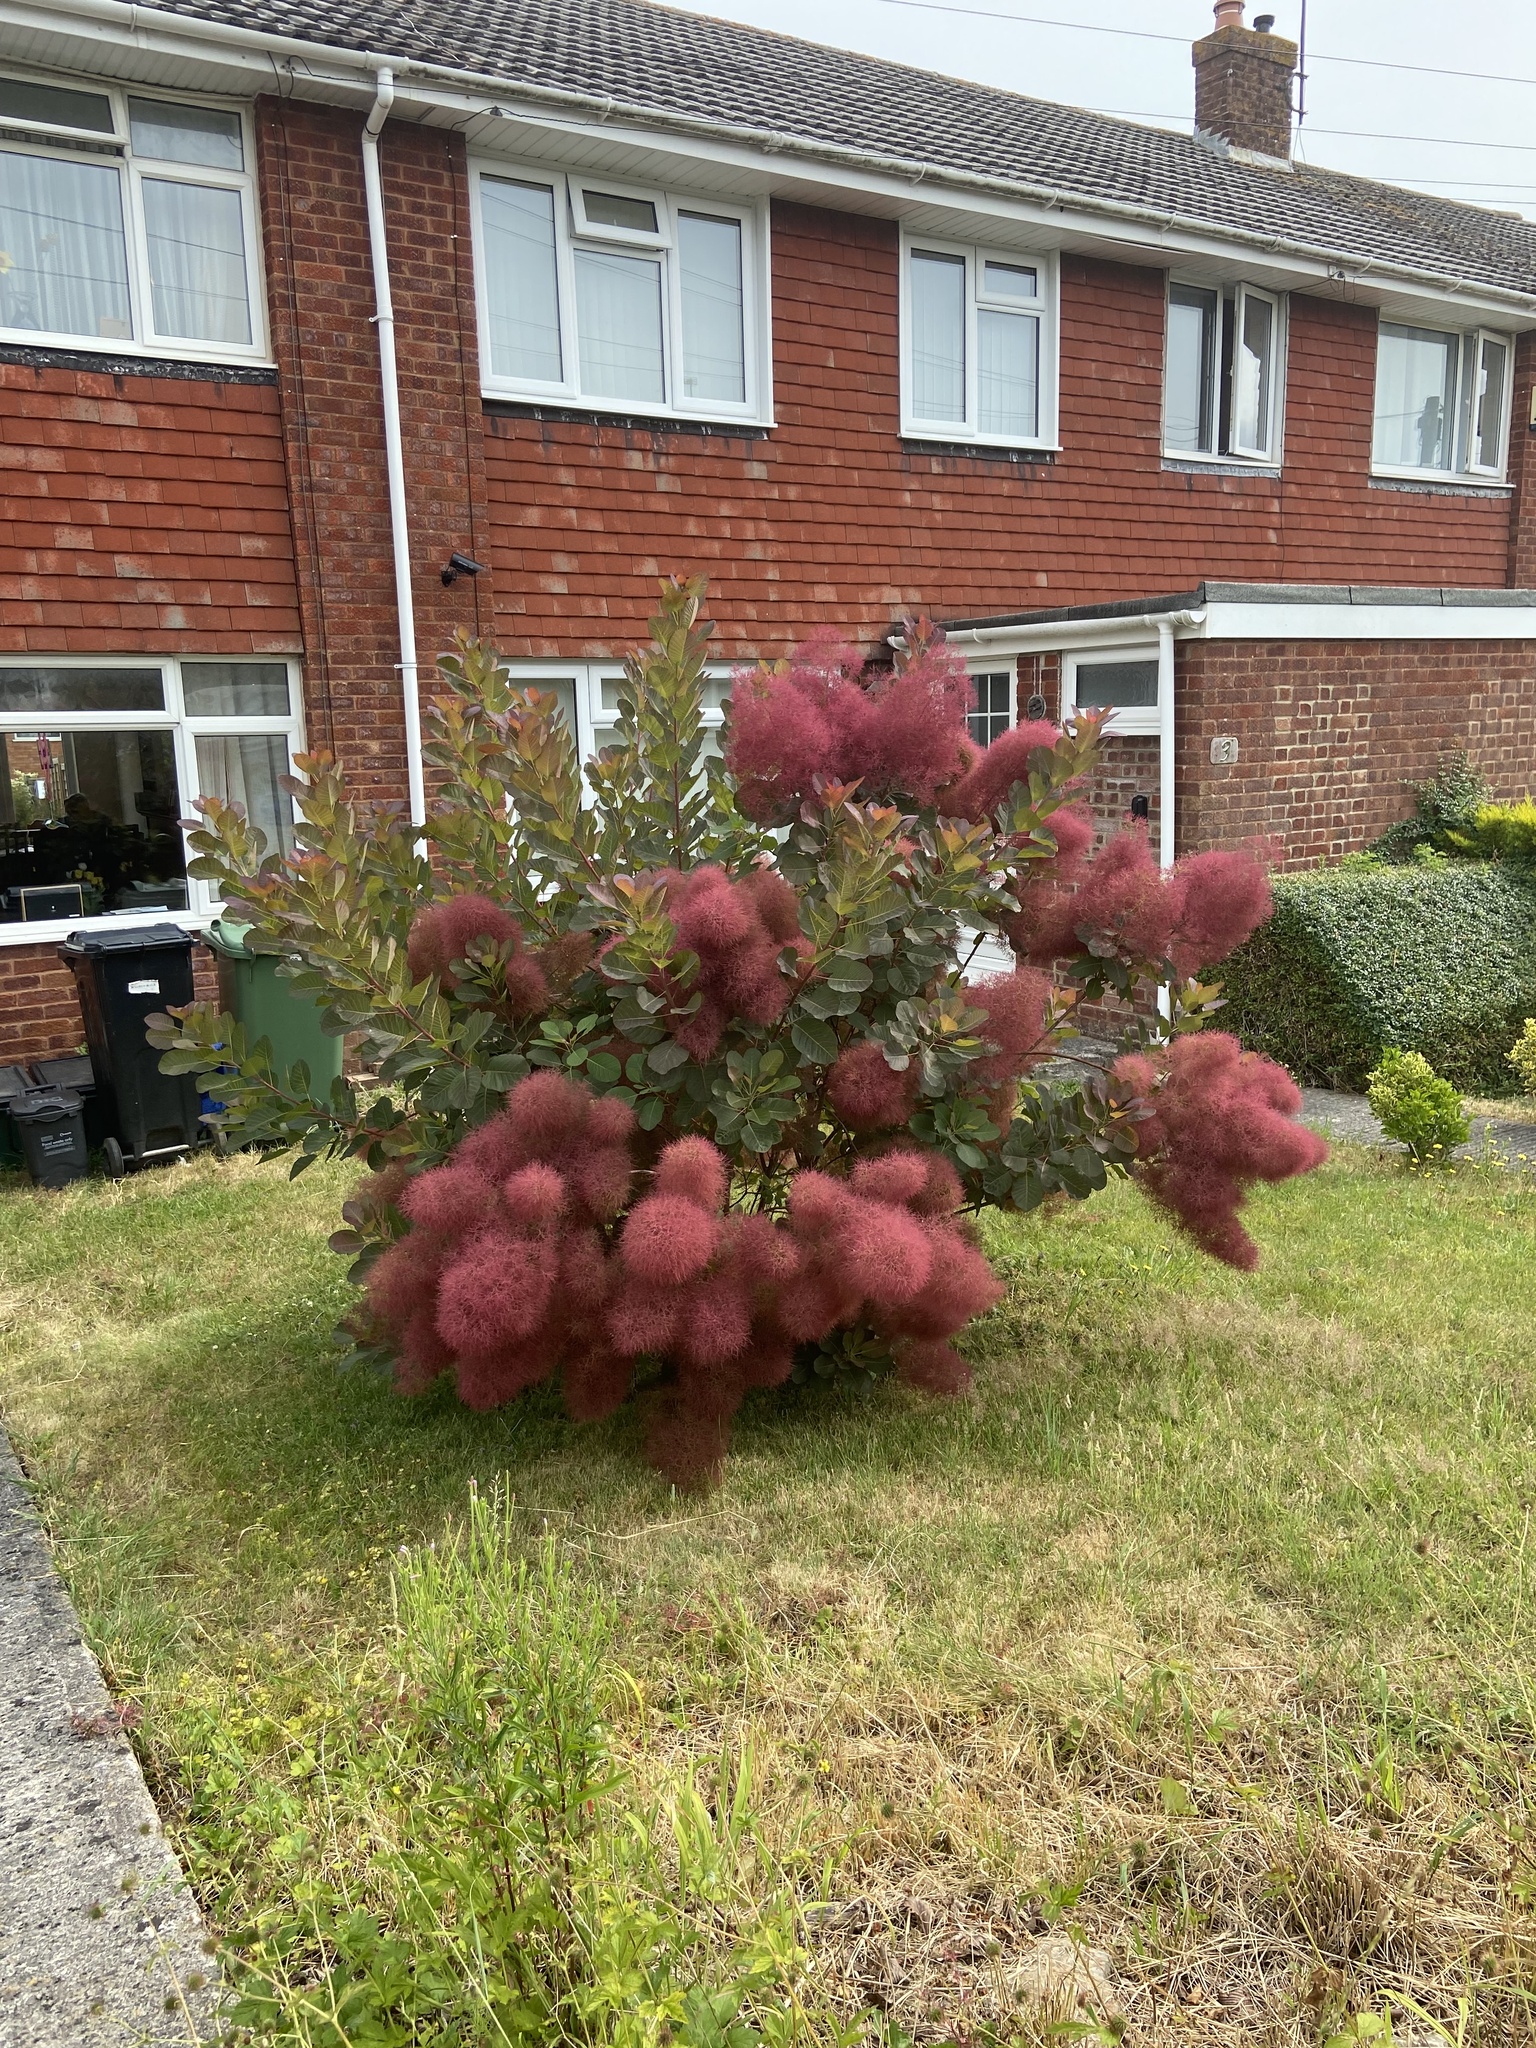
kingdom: Plantae
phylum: Tracheophyta
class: Magnoliopsida
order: Sapindales
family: Anacardiaceae
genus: Cotinus
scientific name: Cotinus coggygria
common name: Smoke-tree
